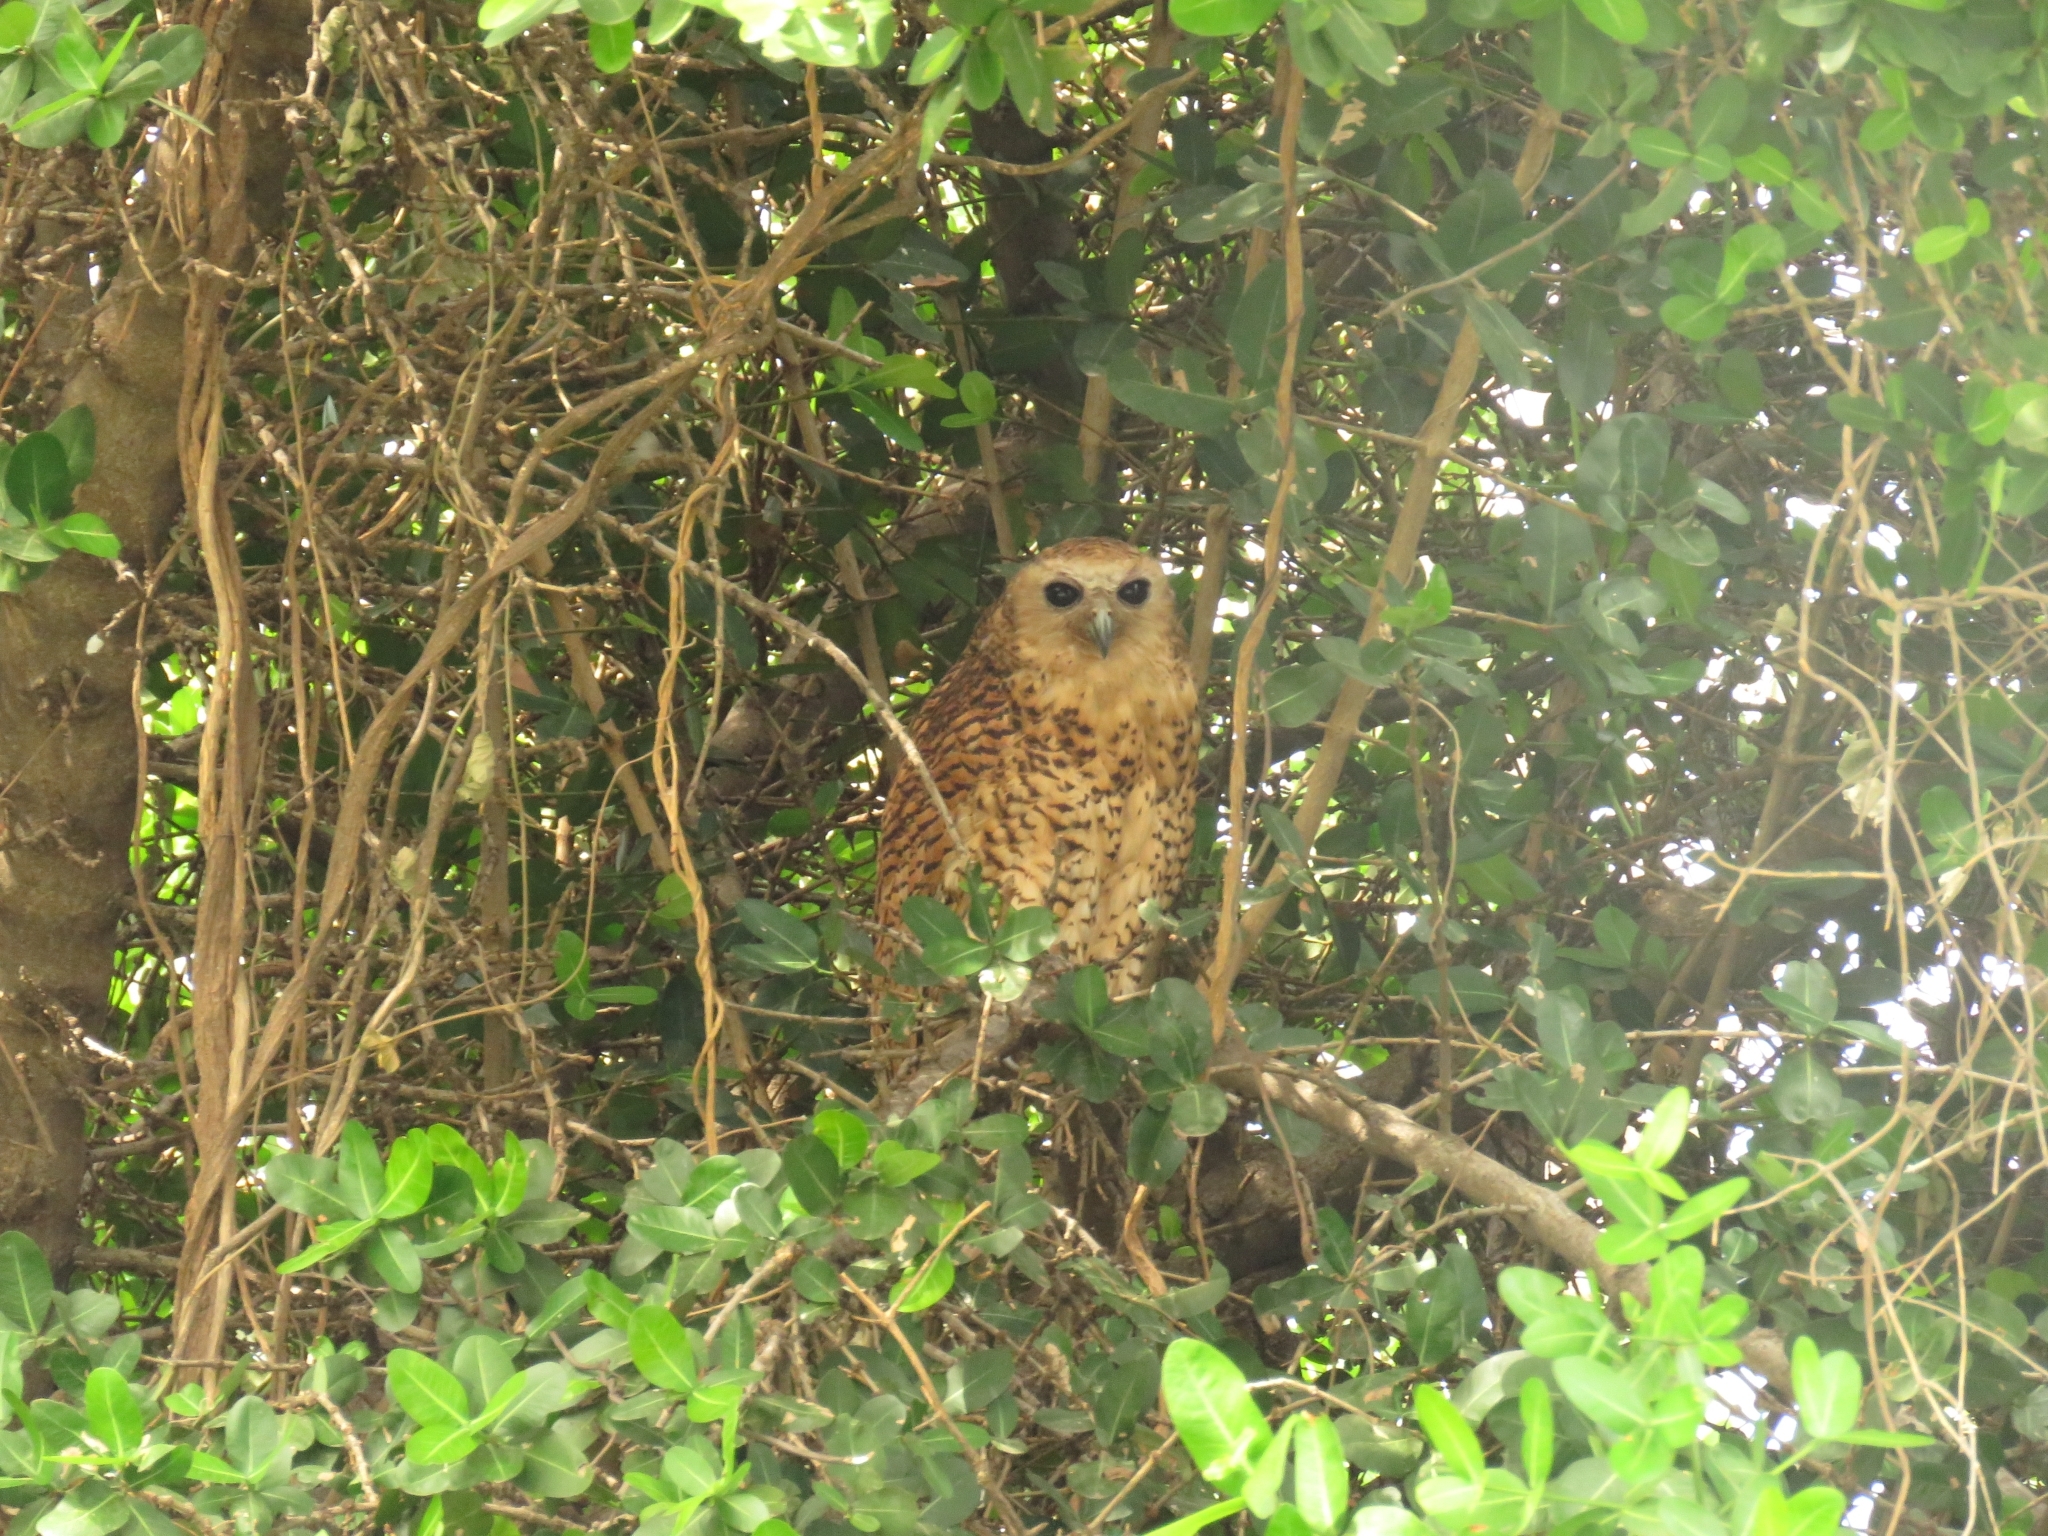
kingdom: Animalia
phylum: Chordata
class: Aves
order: Strigiformes
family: Strigidae
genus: Scotopelia
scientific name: Scotopelia peli
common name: Pel's fishing owl
